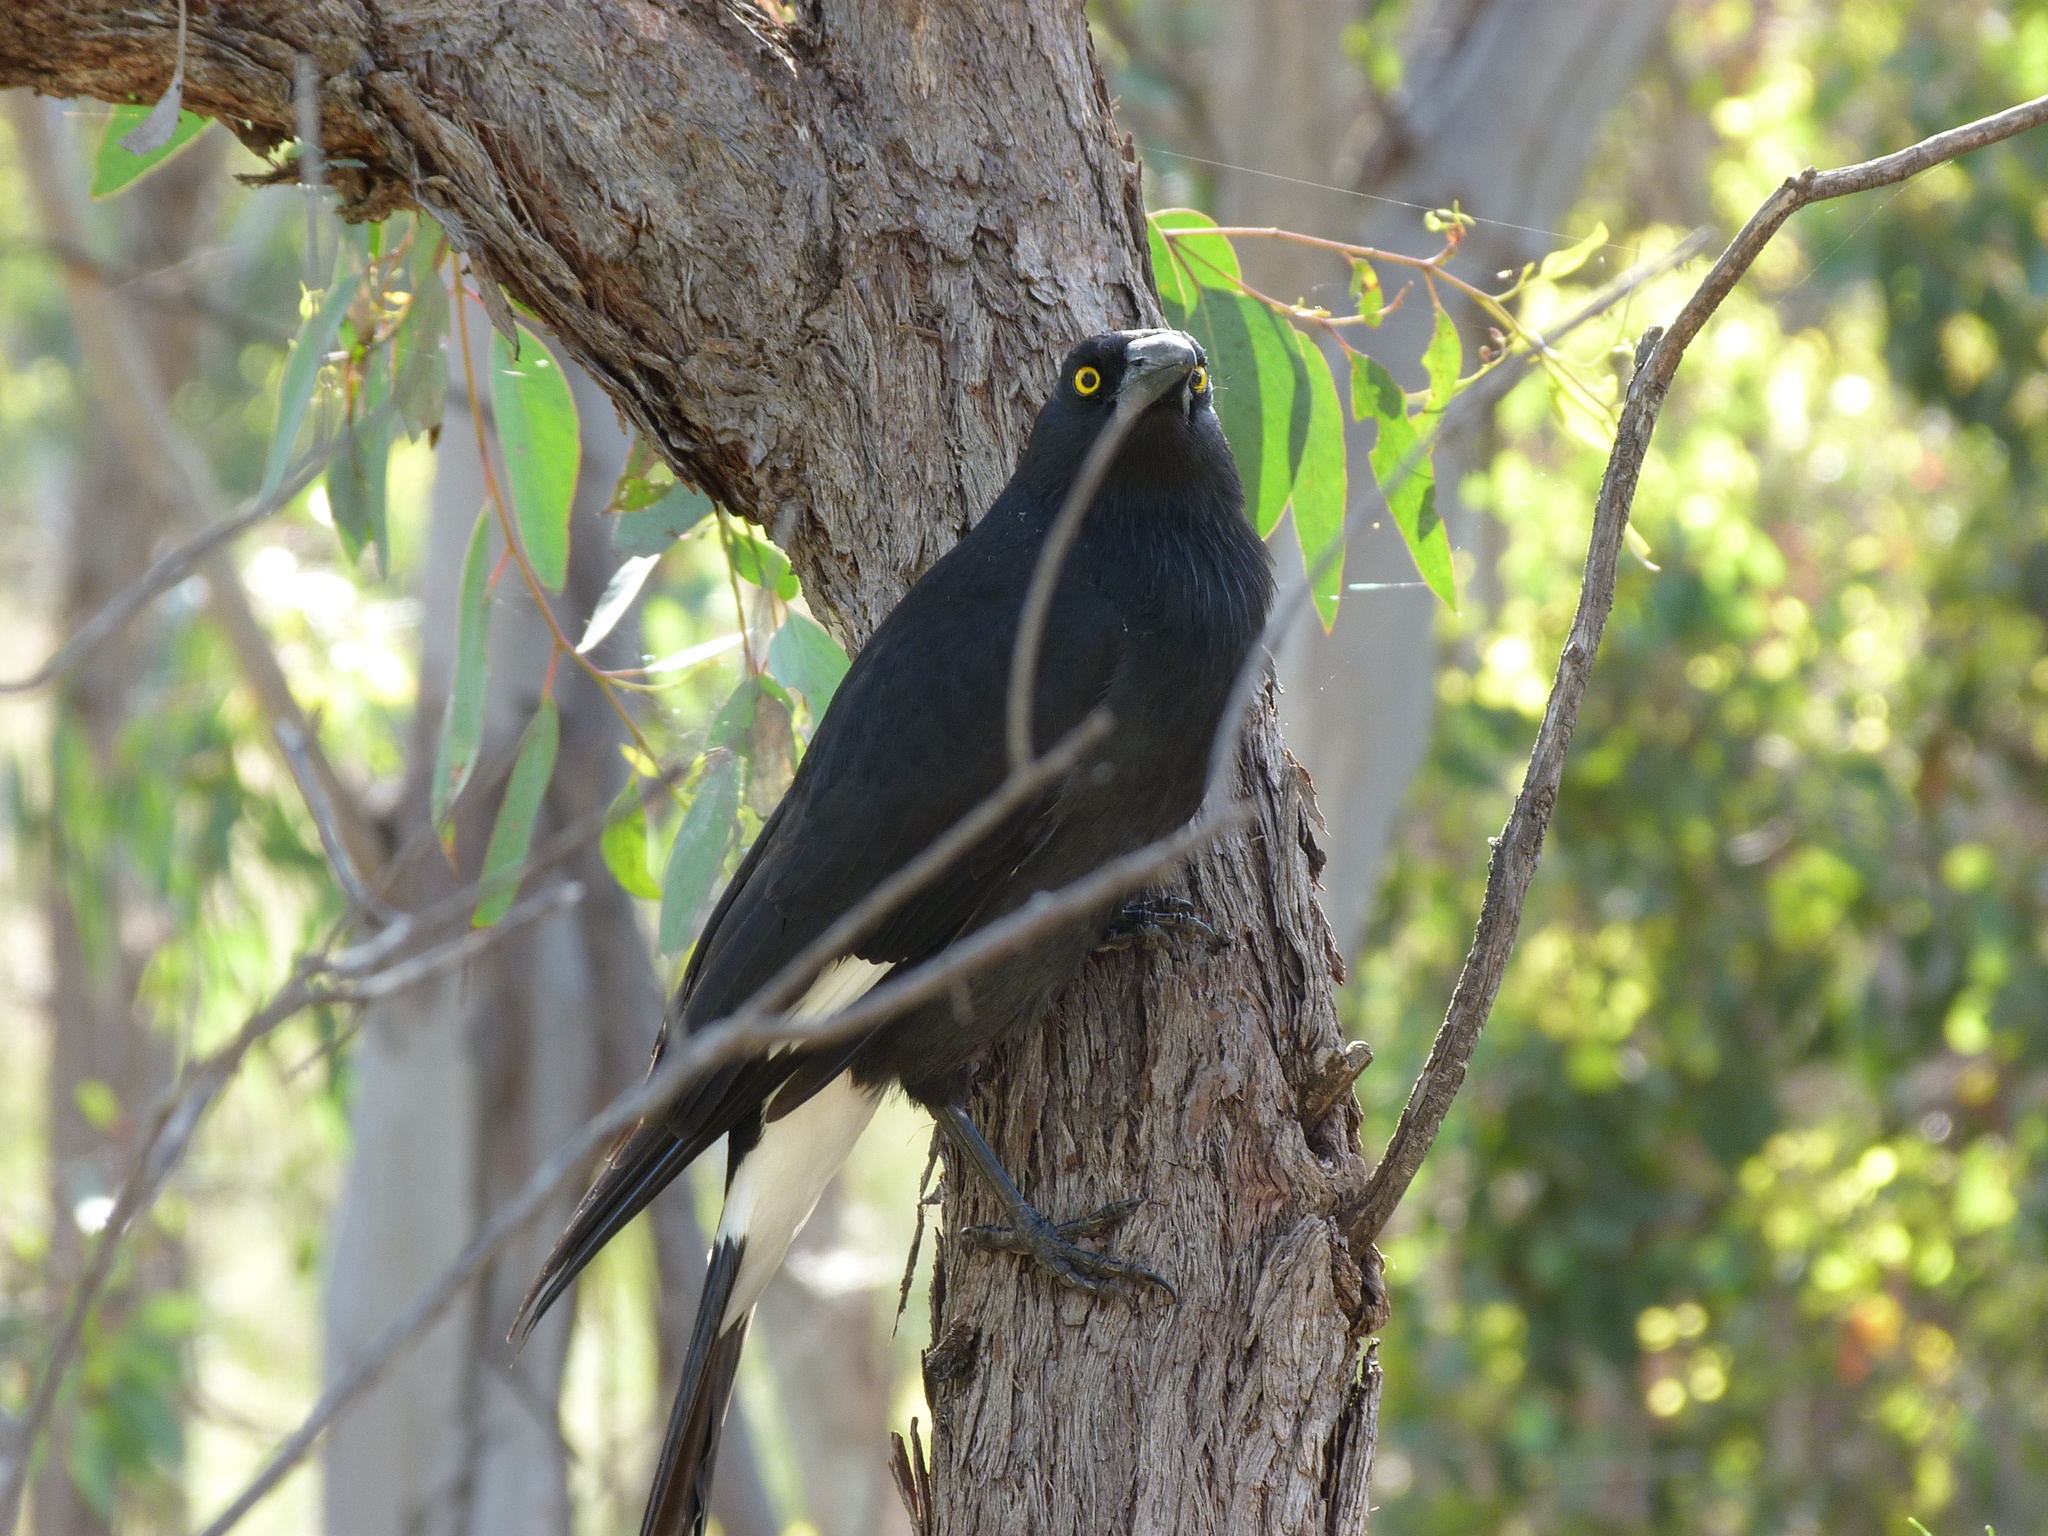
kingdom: Animalia
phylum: Chordata
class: Aves
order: Passeriformes
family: Cracticidae
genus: Strepera
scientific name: Strepera graculina
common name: Pied currawong
